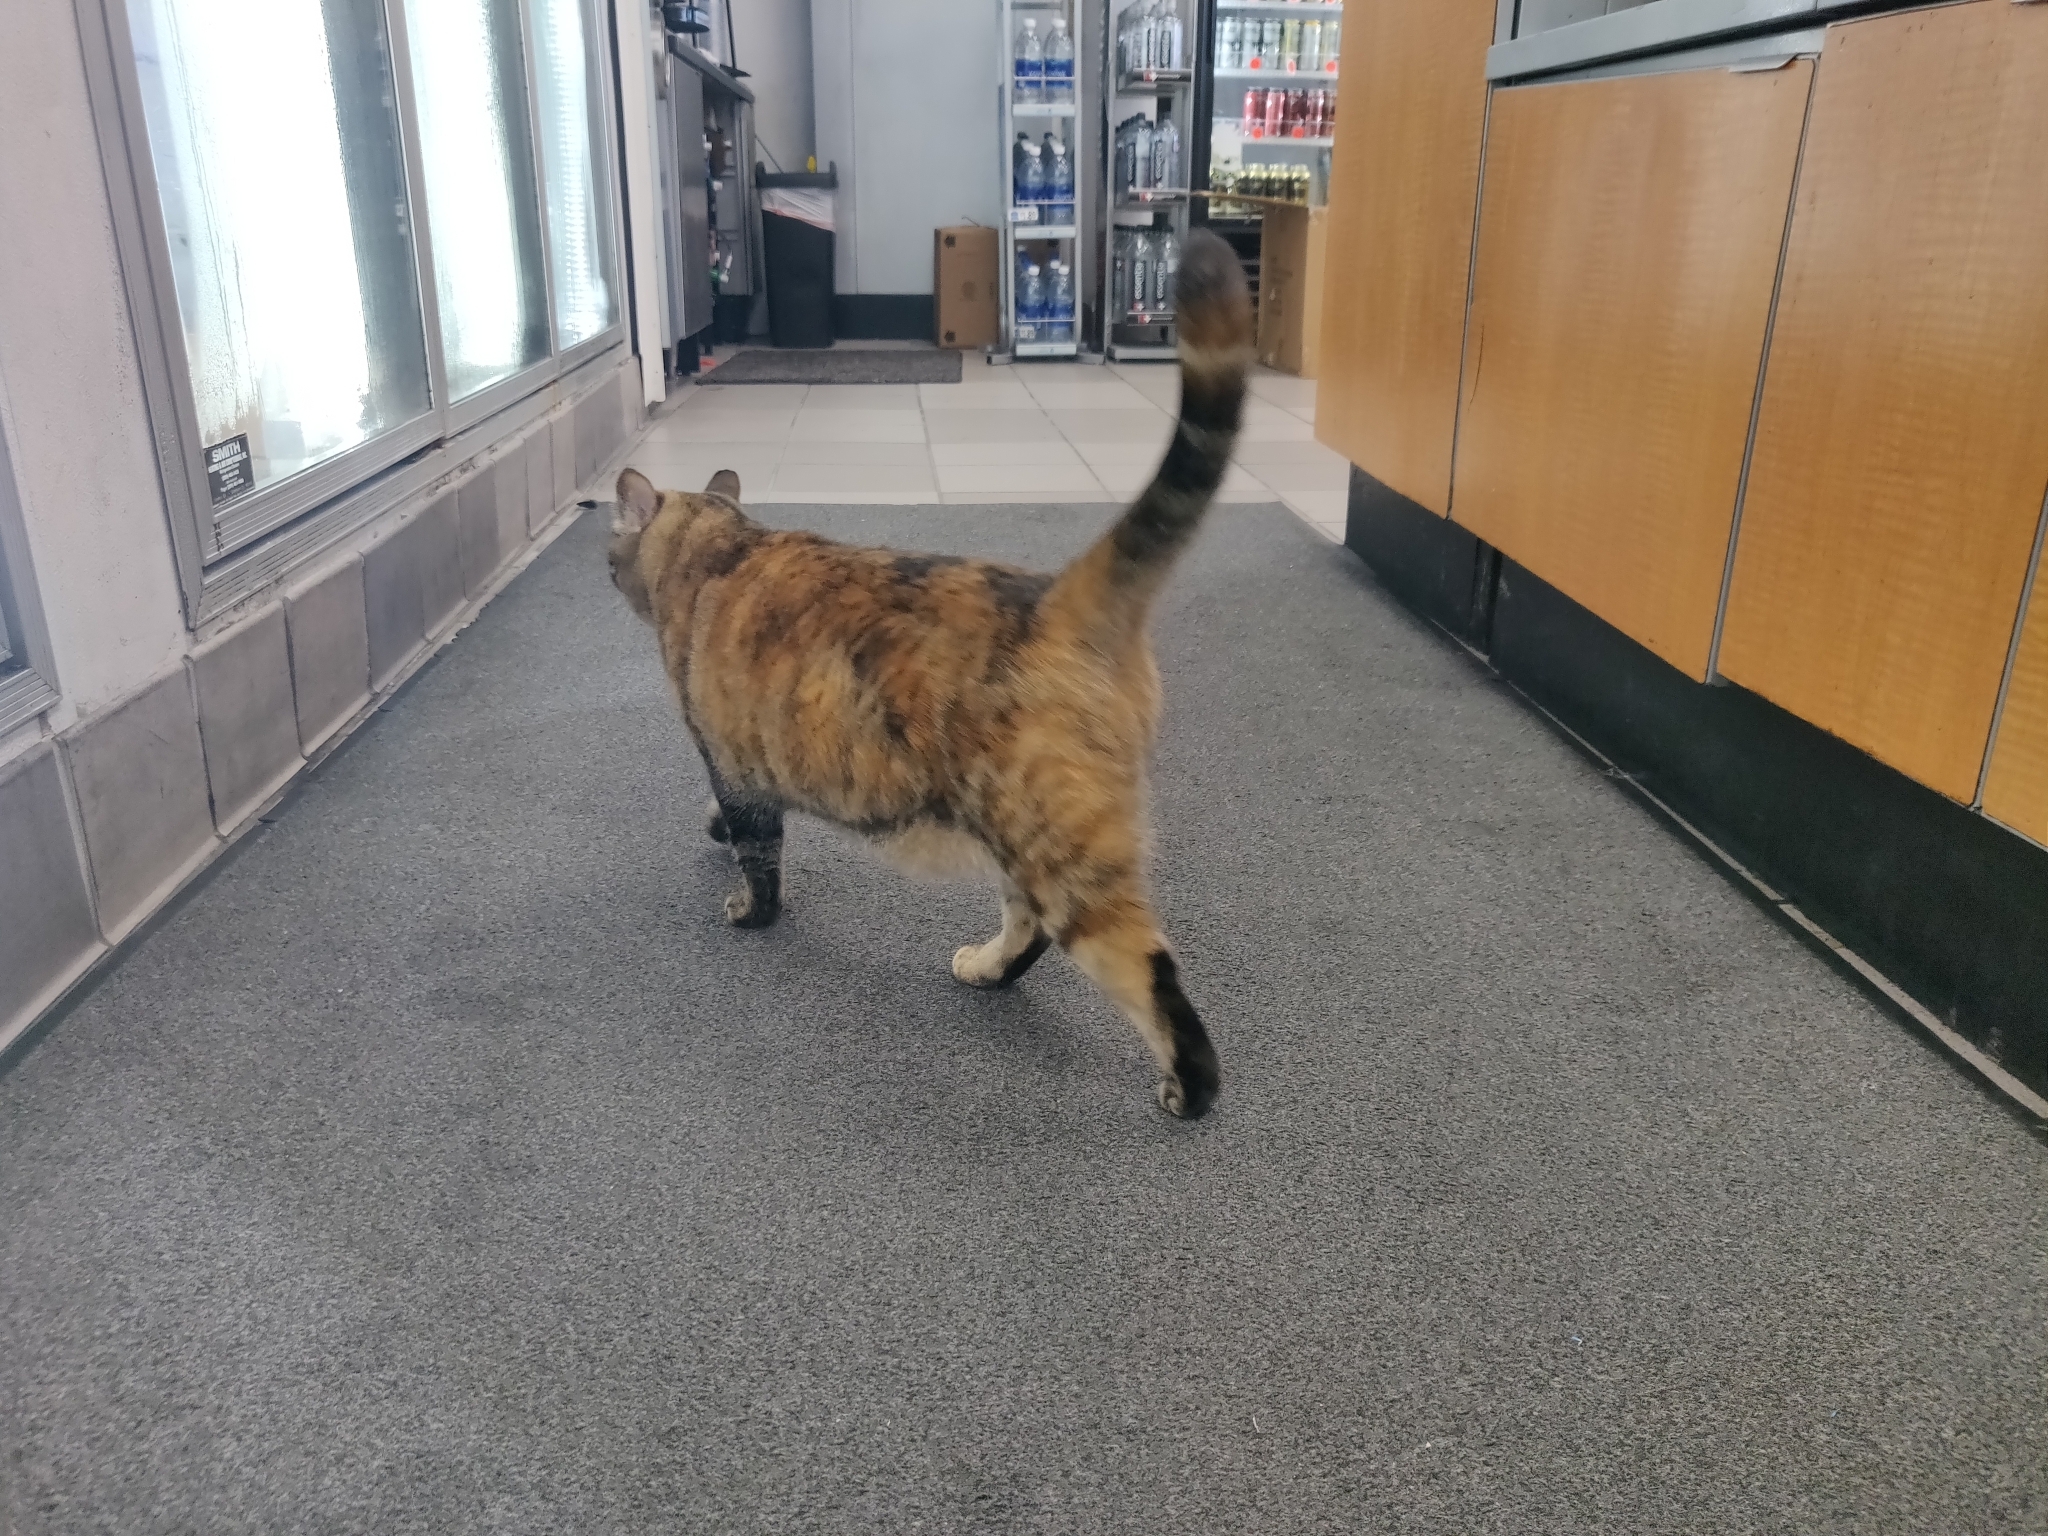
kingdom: Animalia
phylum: Chordata
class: Mammalia
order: Carnivora
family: Felidae
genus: Felis
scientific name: Felis catus
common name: Domestic cat
